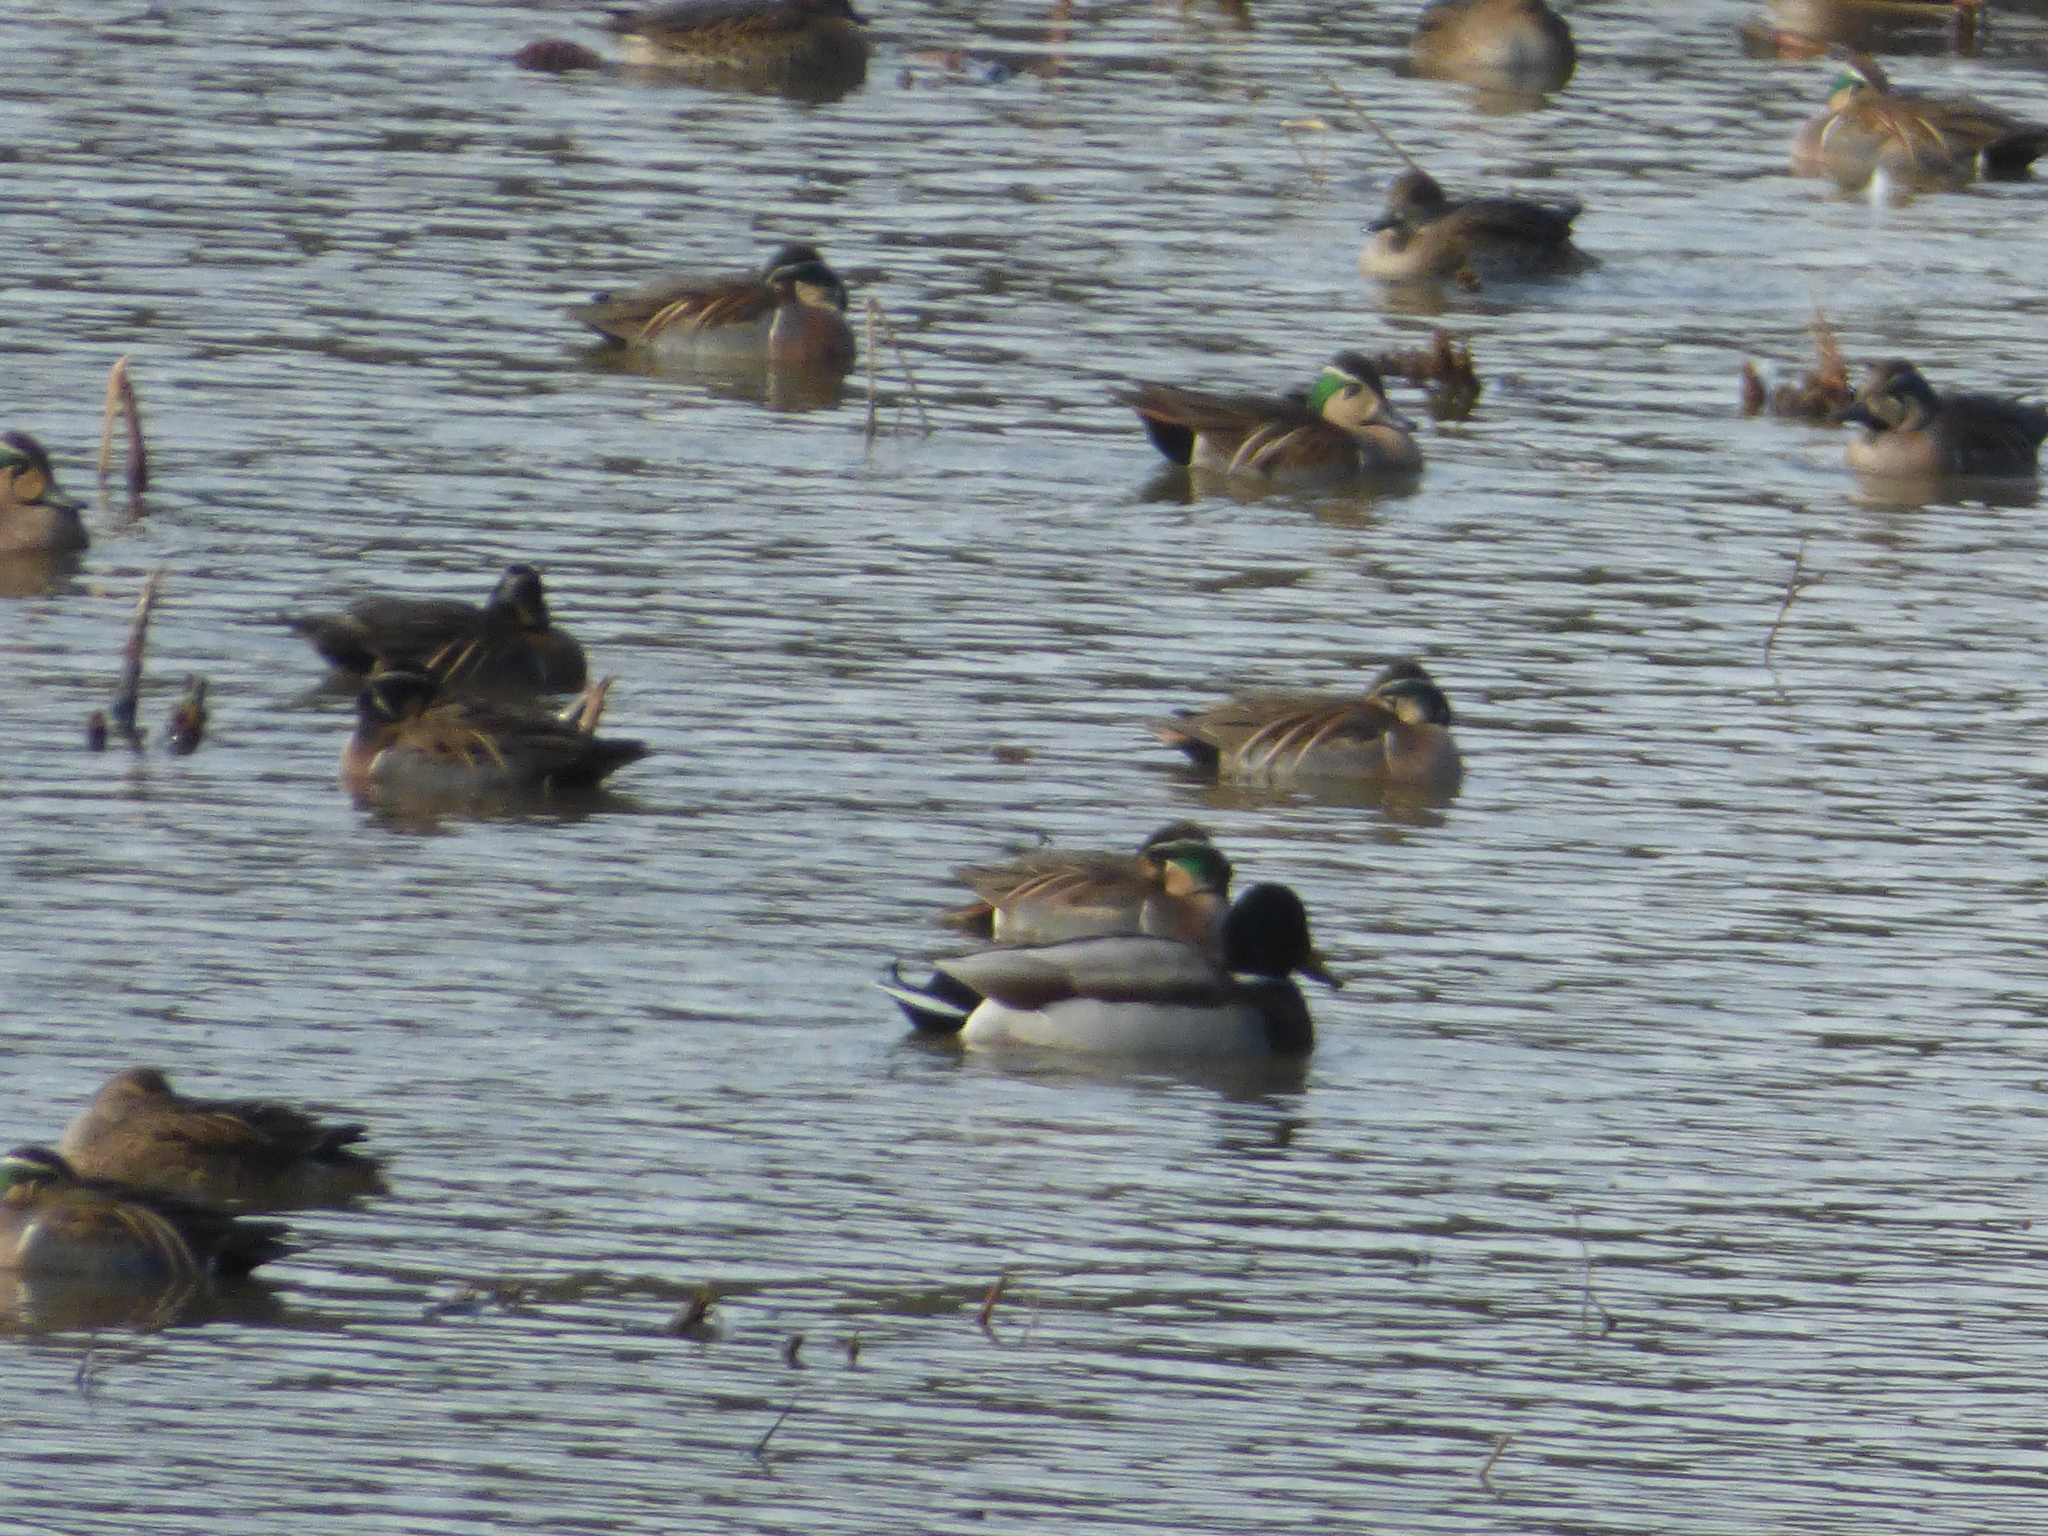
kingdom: Animalia
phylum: Chordata
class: Aves
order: Anseriformes
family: Anatidae
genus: Sibirionetta
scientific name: Sibirionetta formosa
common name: Baikal teal
